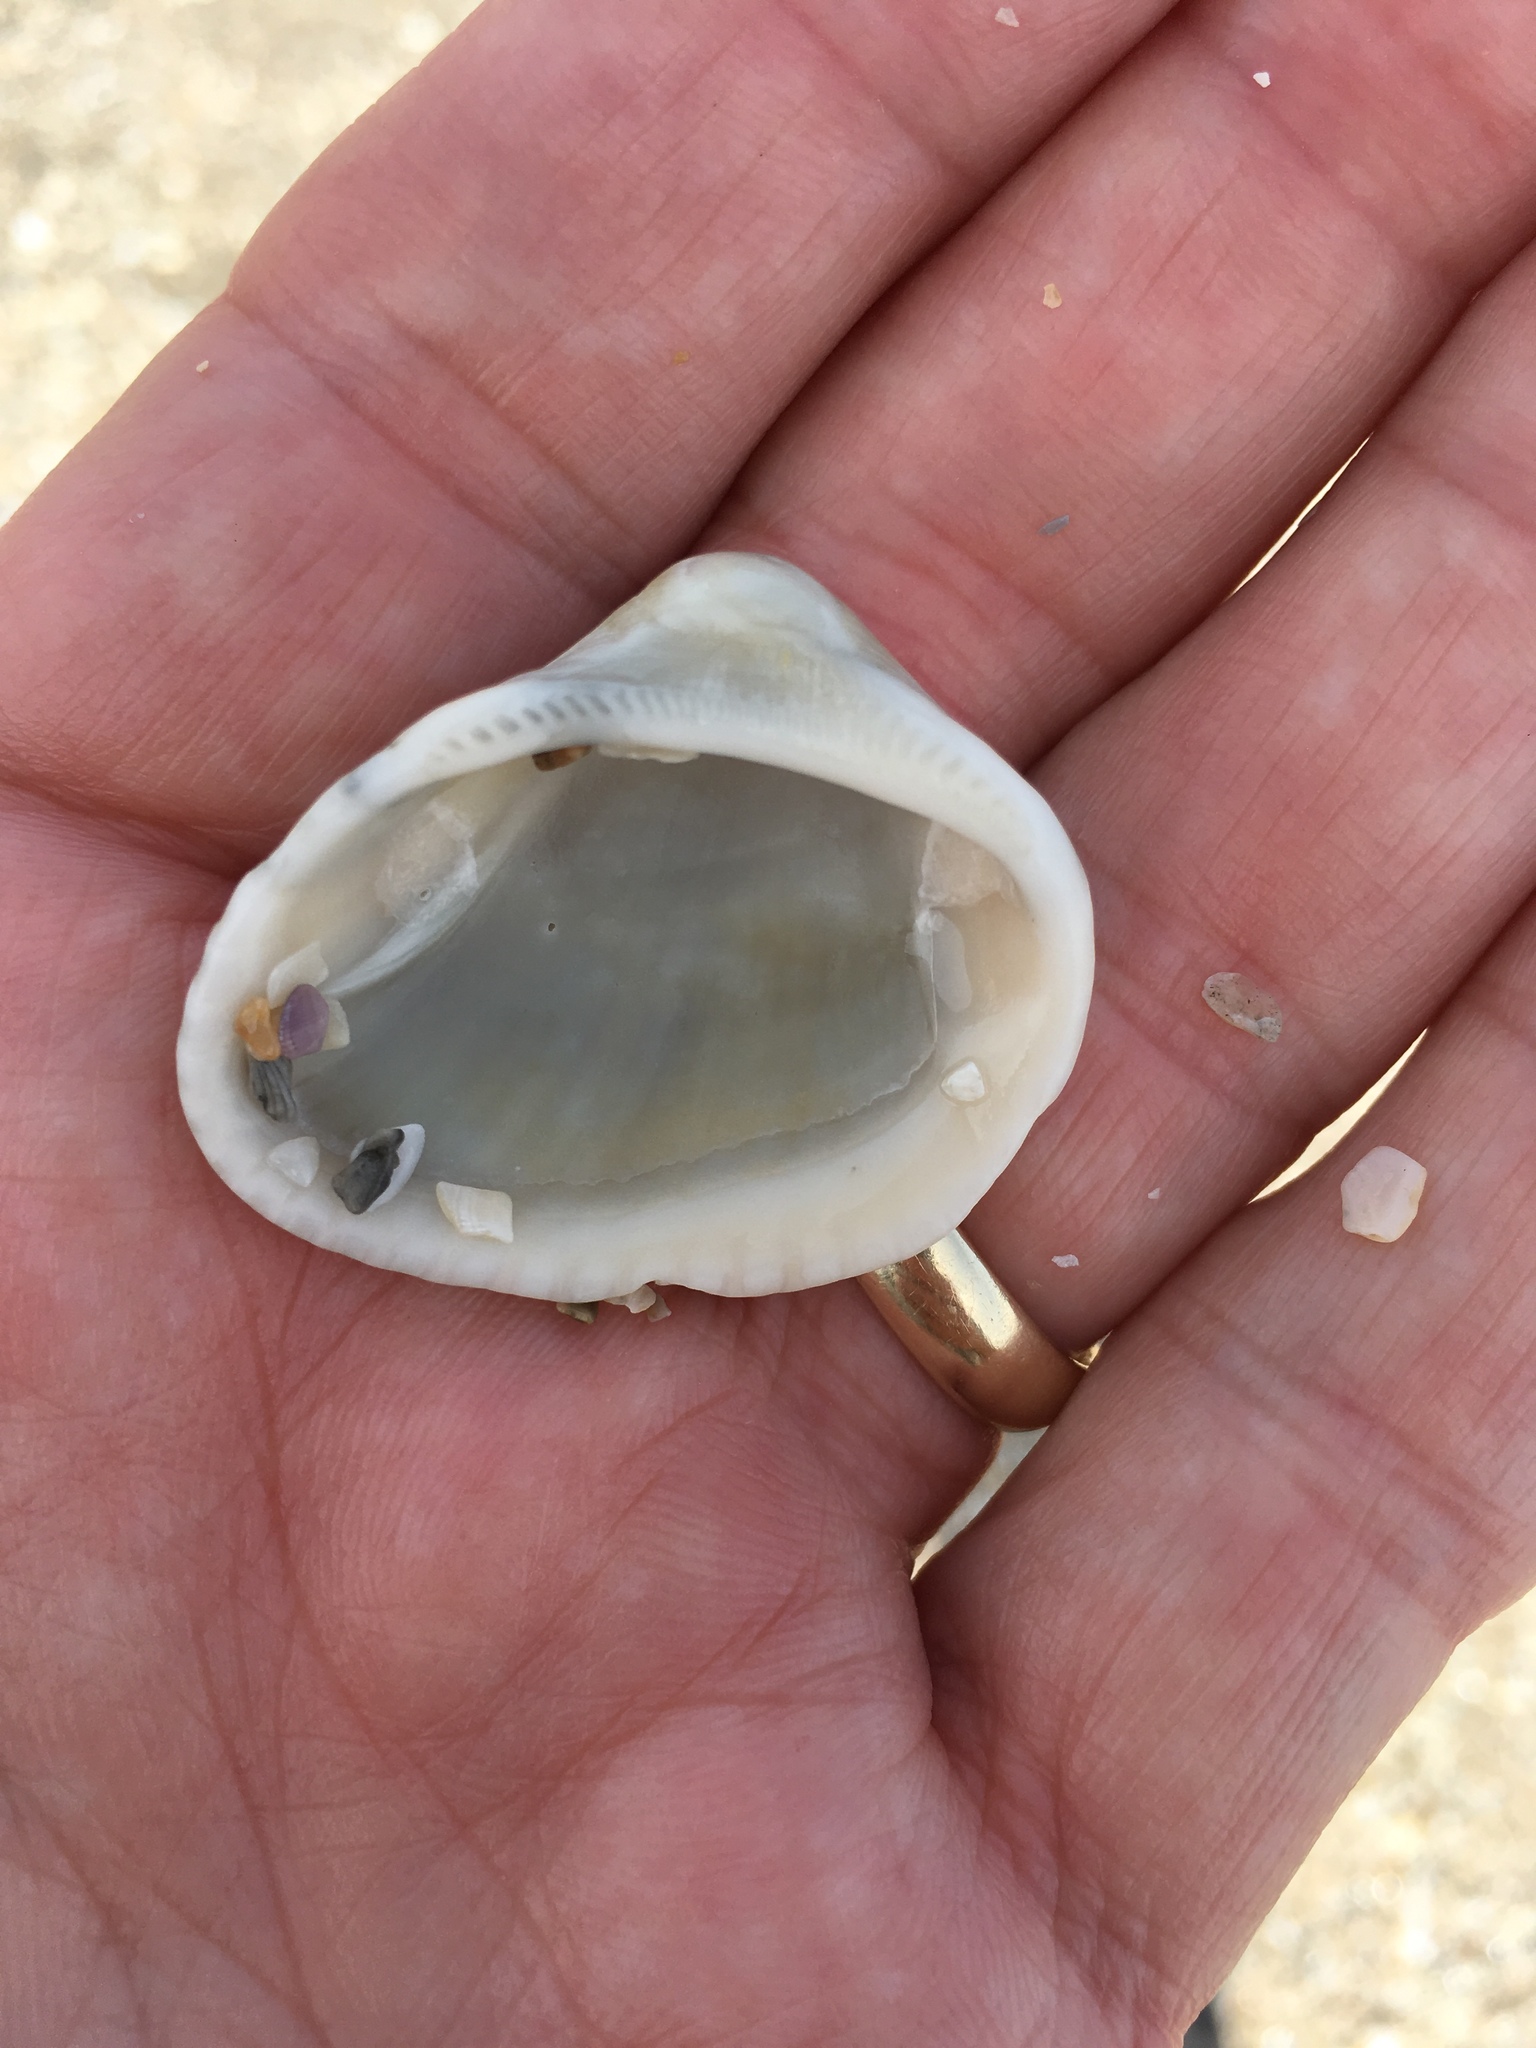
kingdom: Animalia
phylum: Mollusca
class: Bivalvia
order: Arcida
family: Noetiidae
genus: Noetia
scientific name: Noetia ponderosa
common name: Ponderous ark
